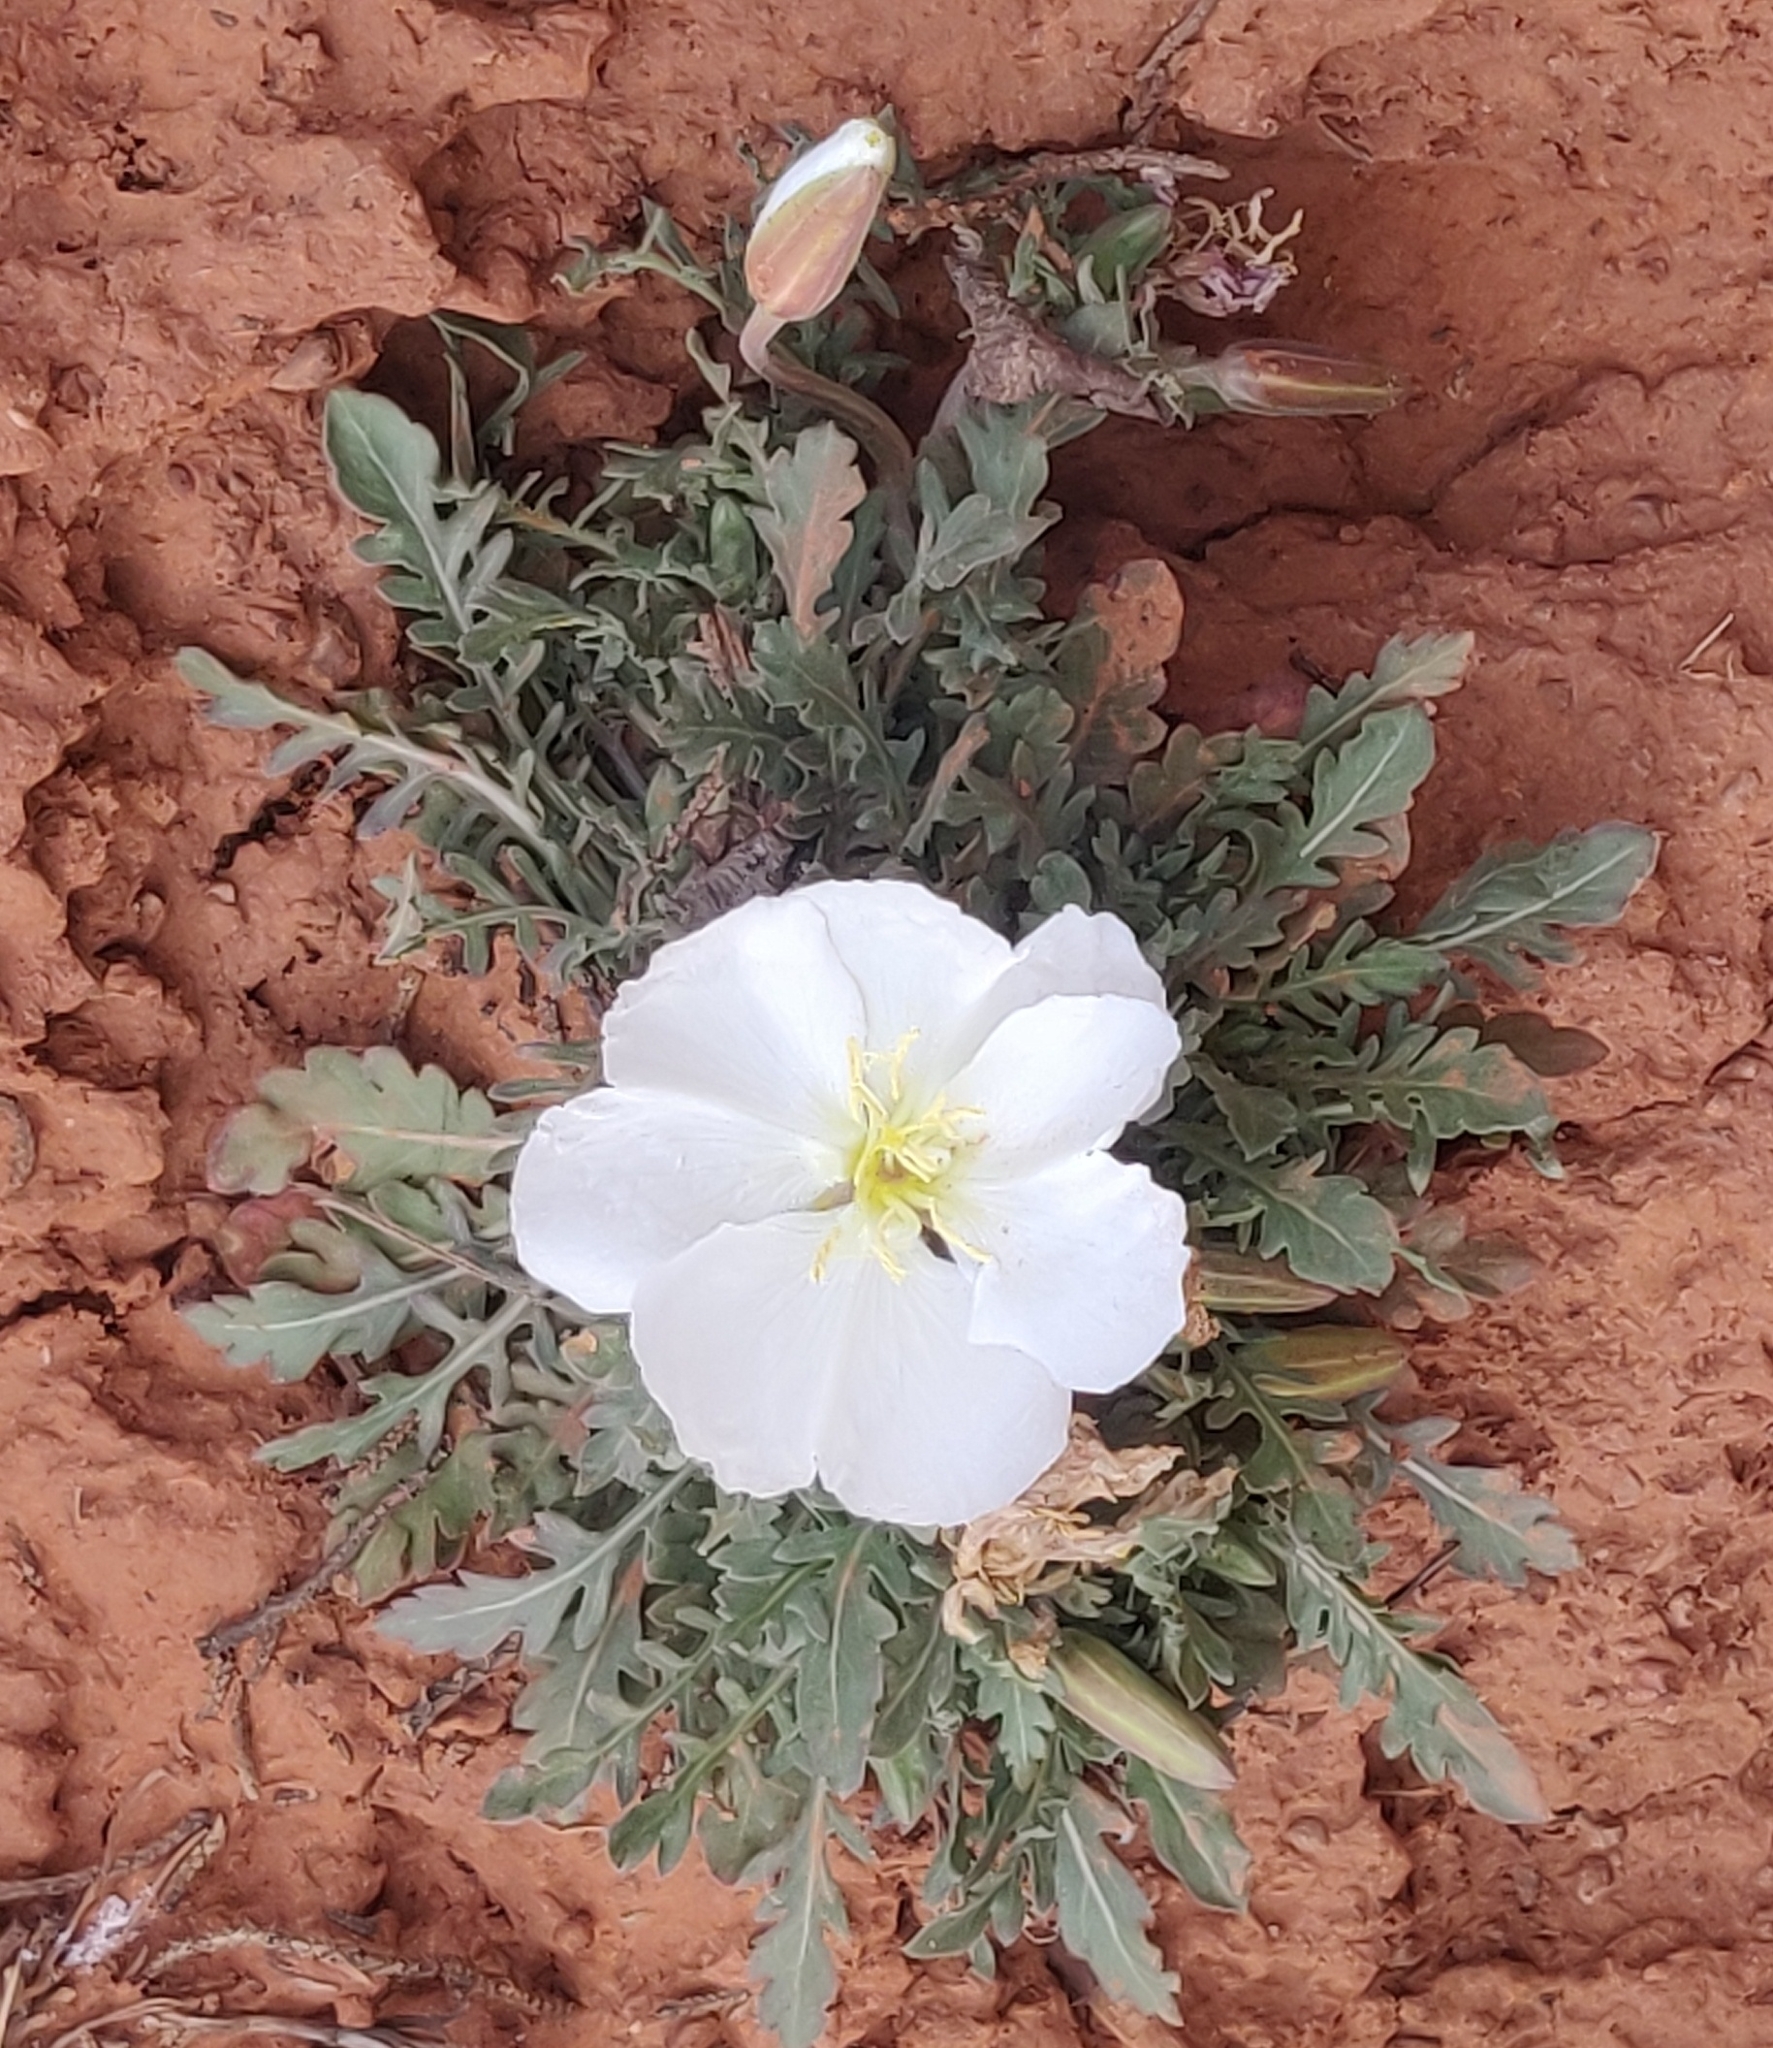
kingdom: Plantae
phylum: Tracheophyta
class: Magnoliopsida
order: Myrtales
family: Onagraceae
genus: Oenothera
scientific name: Oenothera albicaulis
